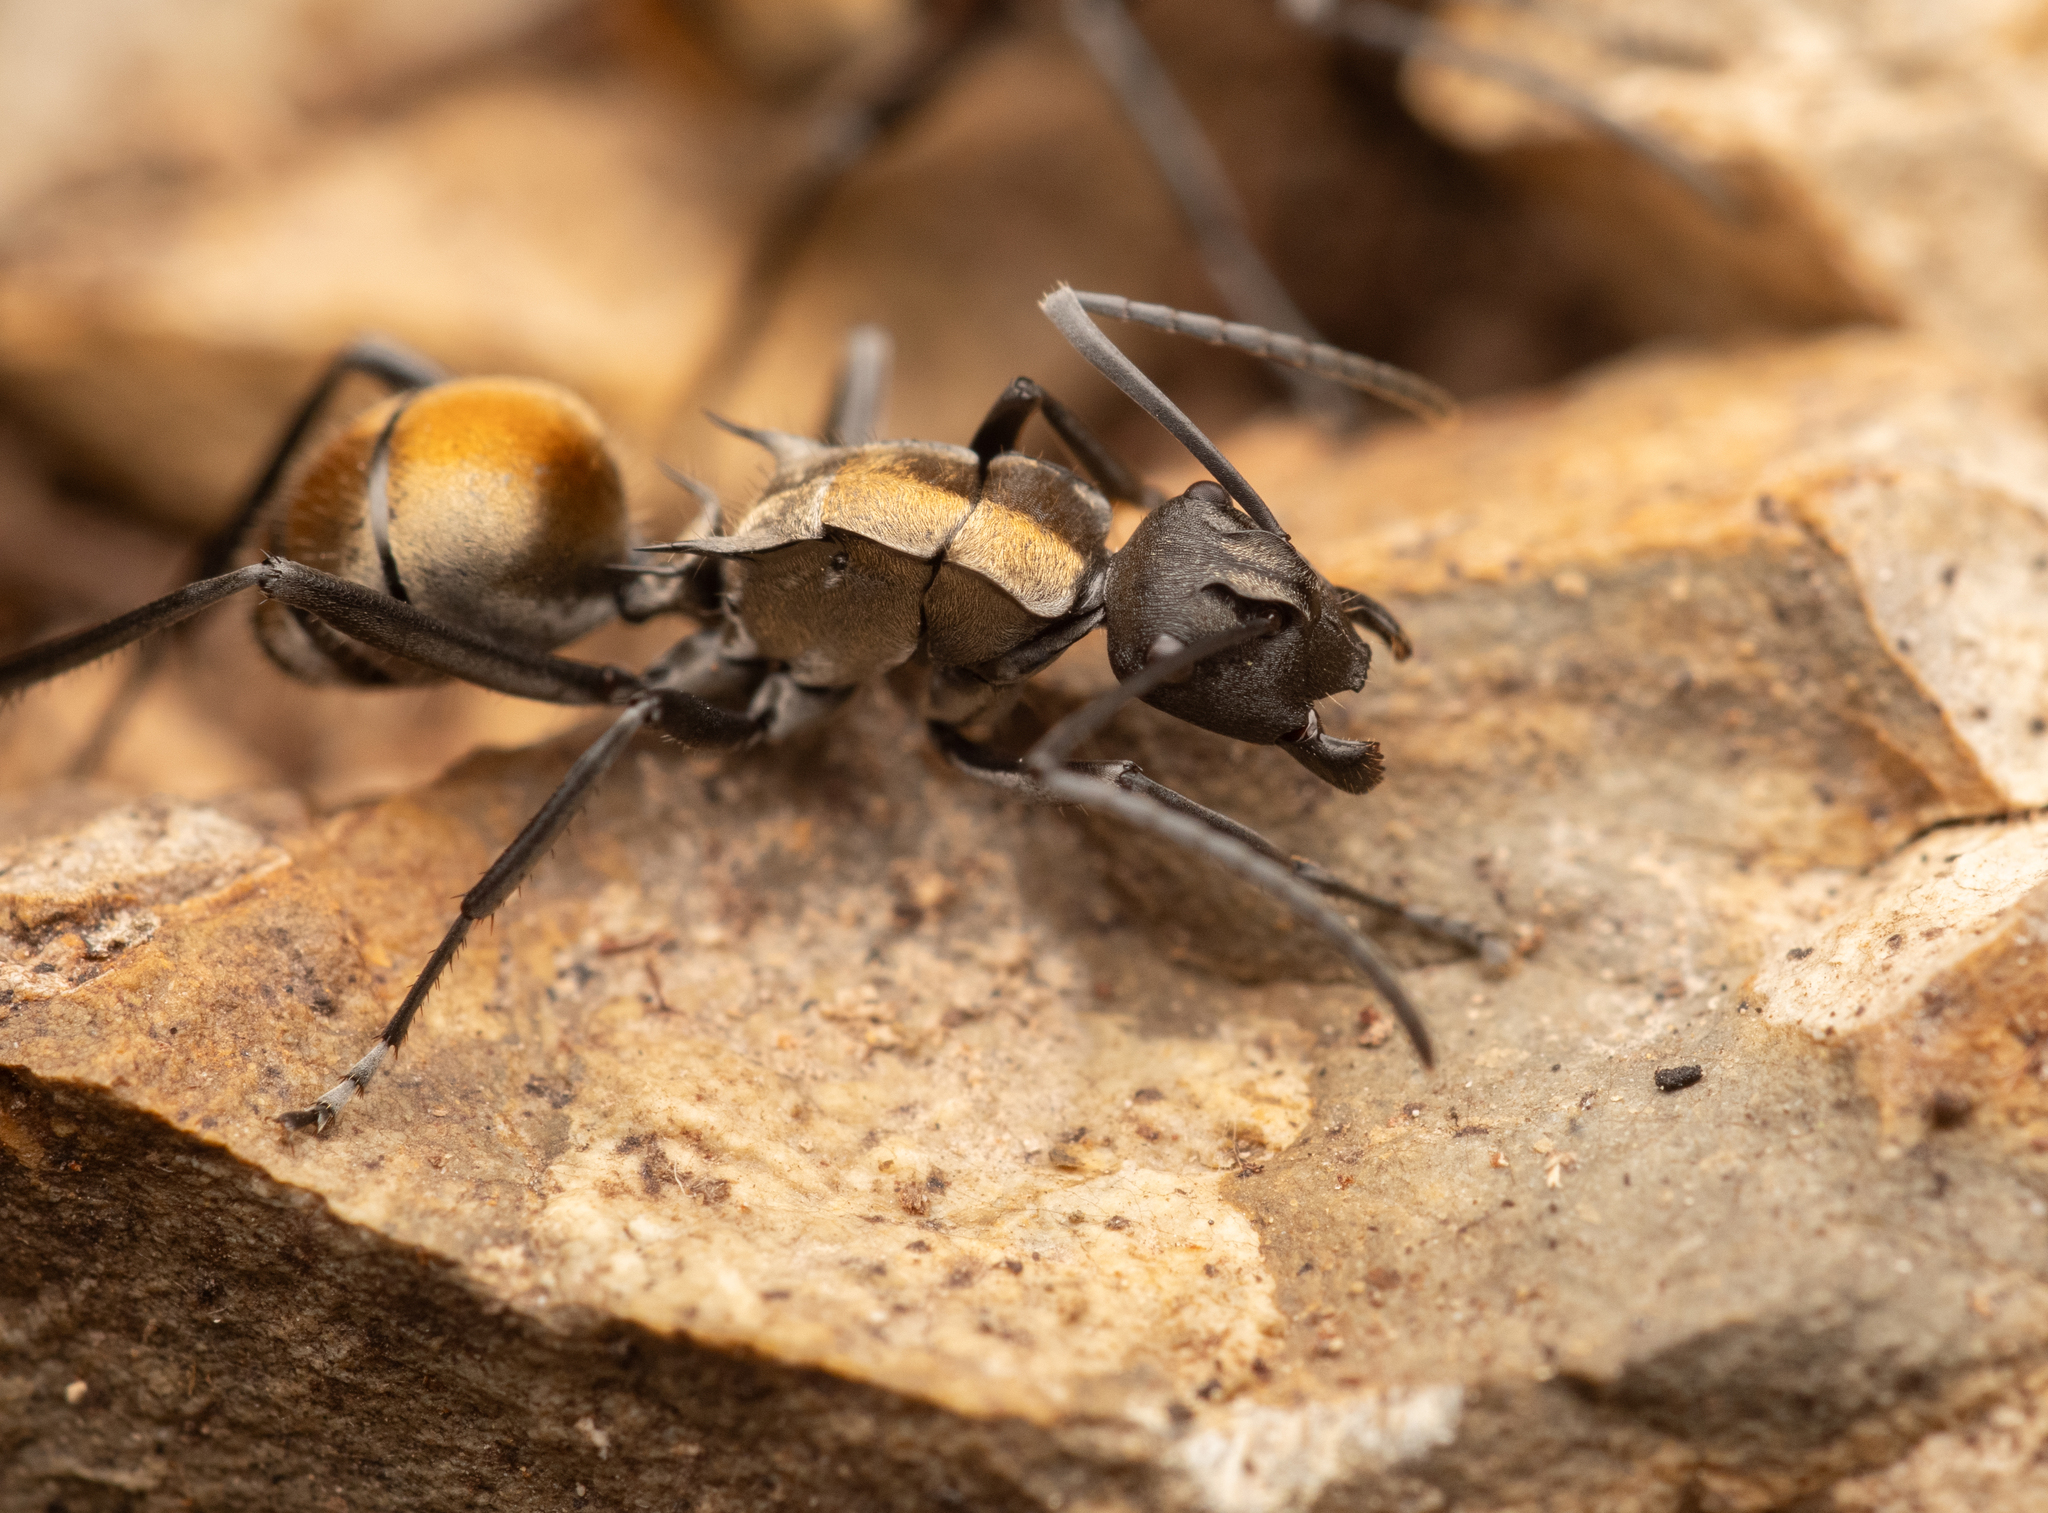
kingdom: Animalia
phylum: Arthropoda
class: Insecta
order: Hymenoptera
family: Formicidae
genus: Polyrhachis
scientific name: Polyrhachis ammon
